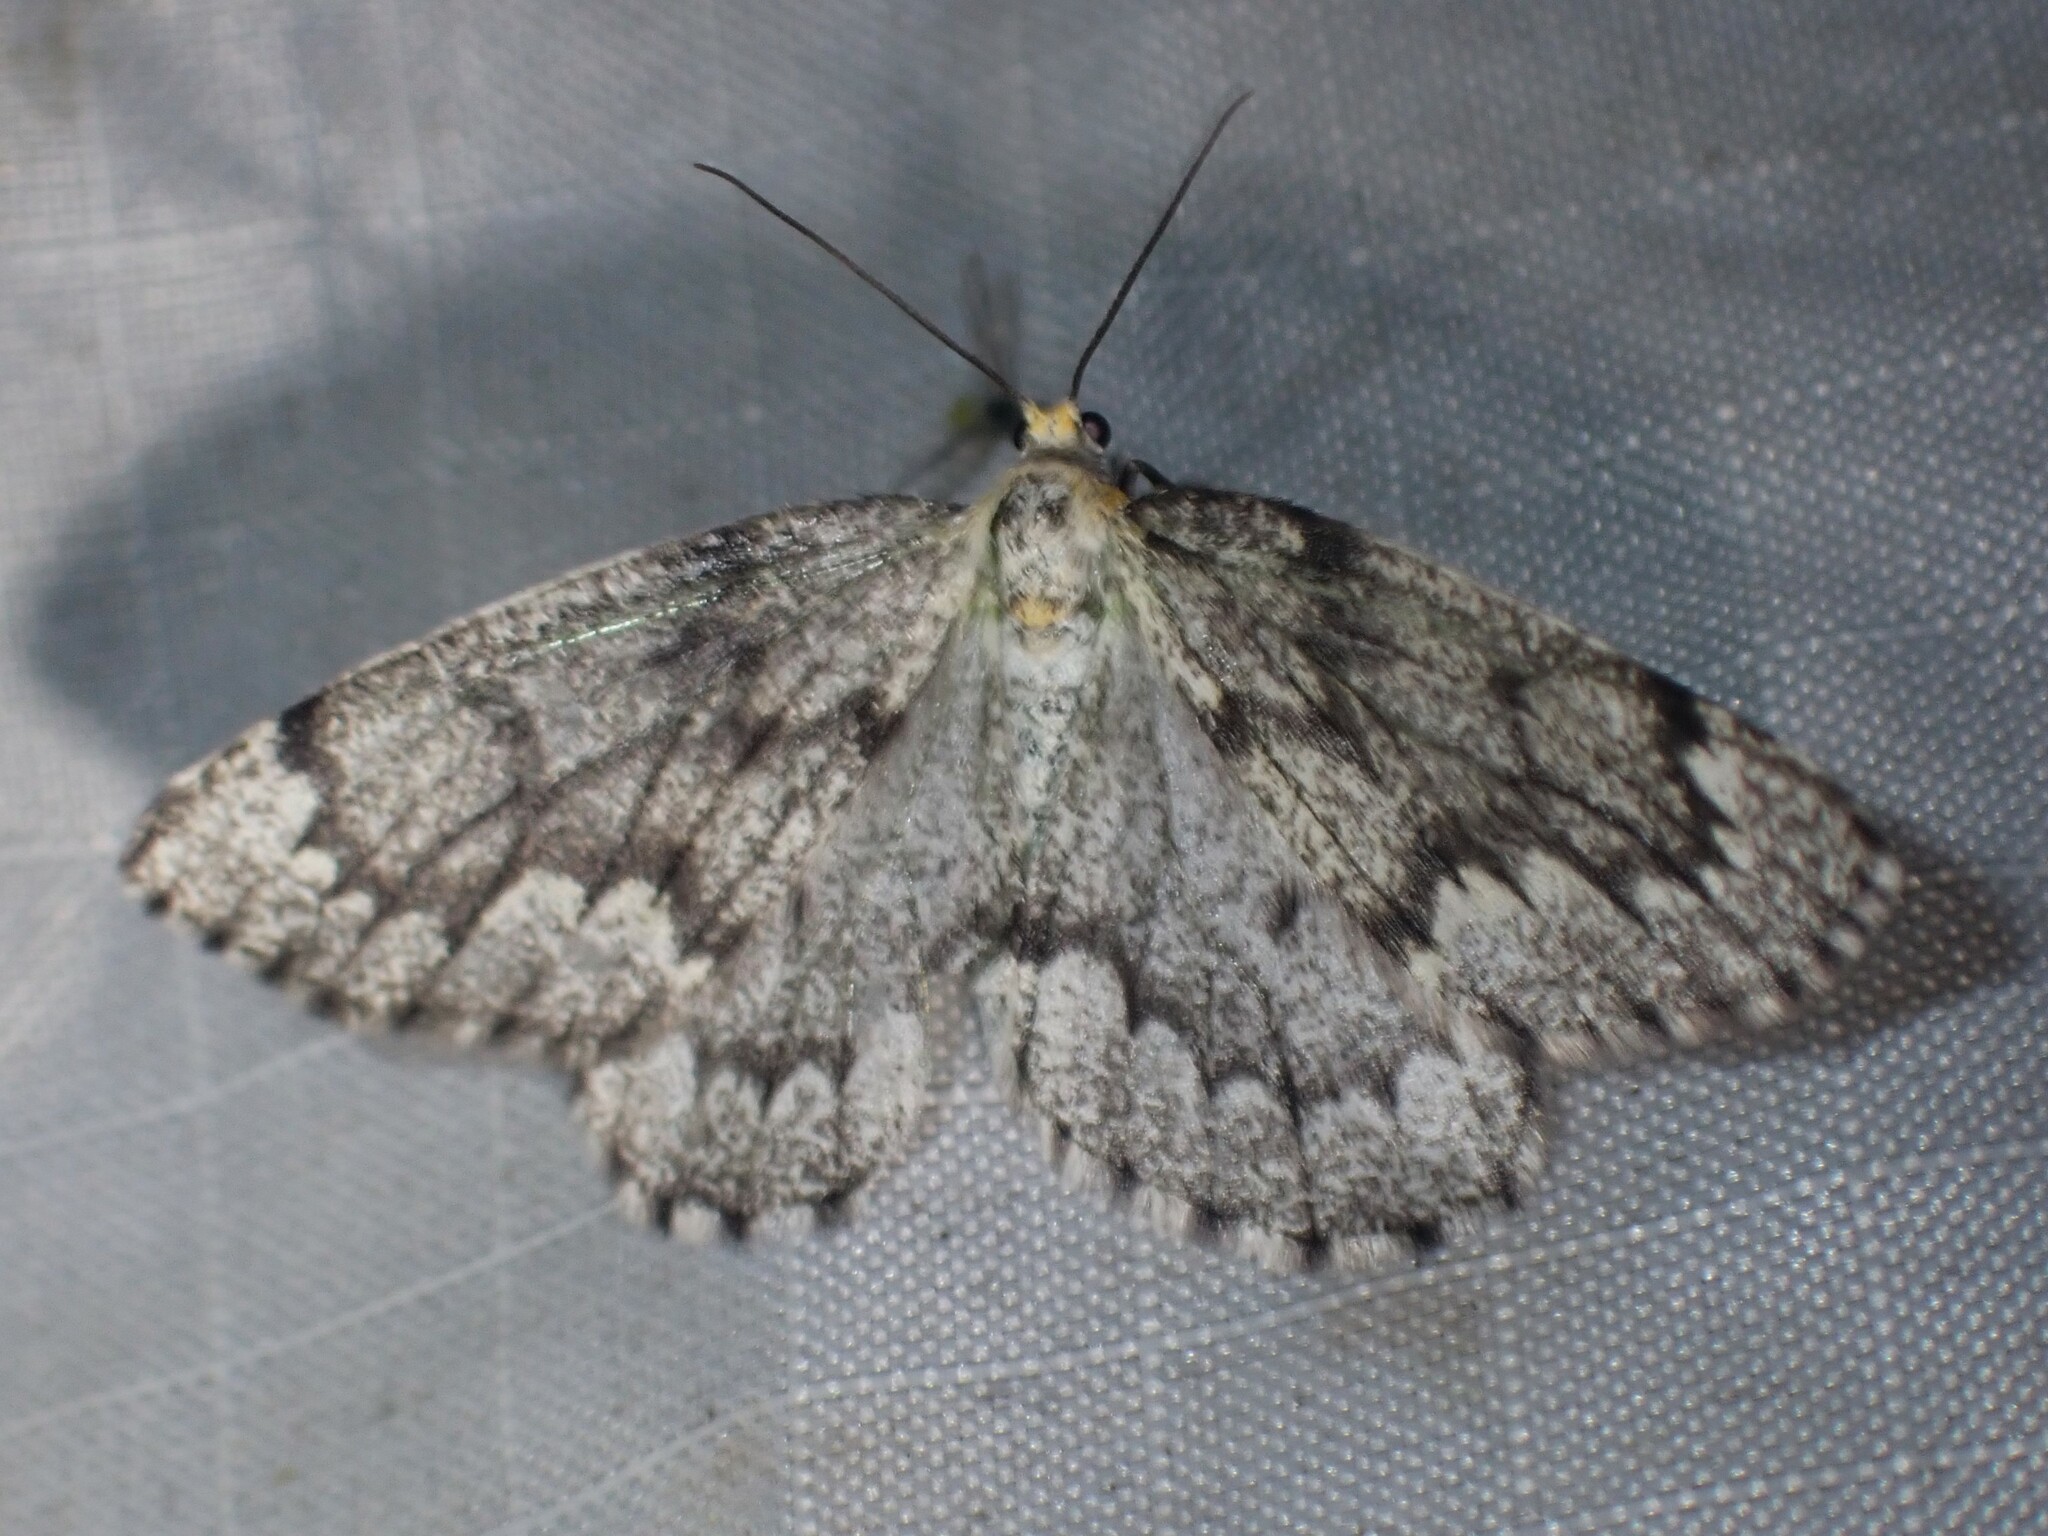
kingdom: Animalia
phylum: Arthropoda
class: Insecta
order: Lepidoptera
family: Geometridae
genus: Nepytia
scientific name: Nepytia canosaria
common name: False hemlock looper
